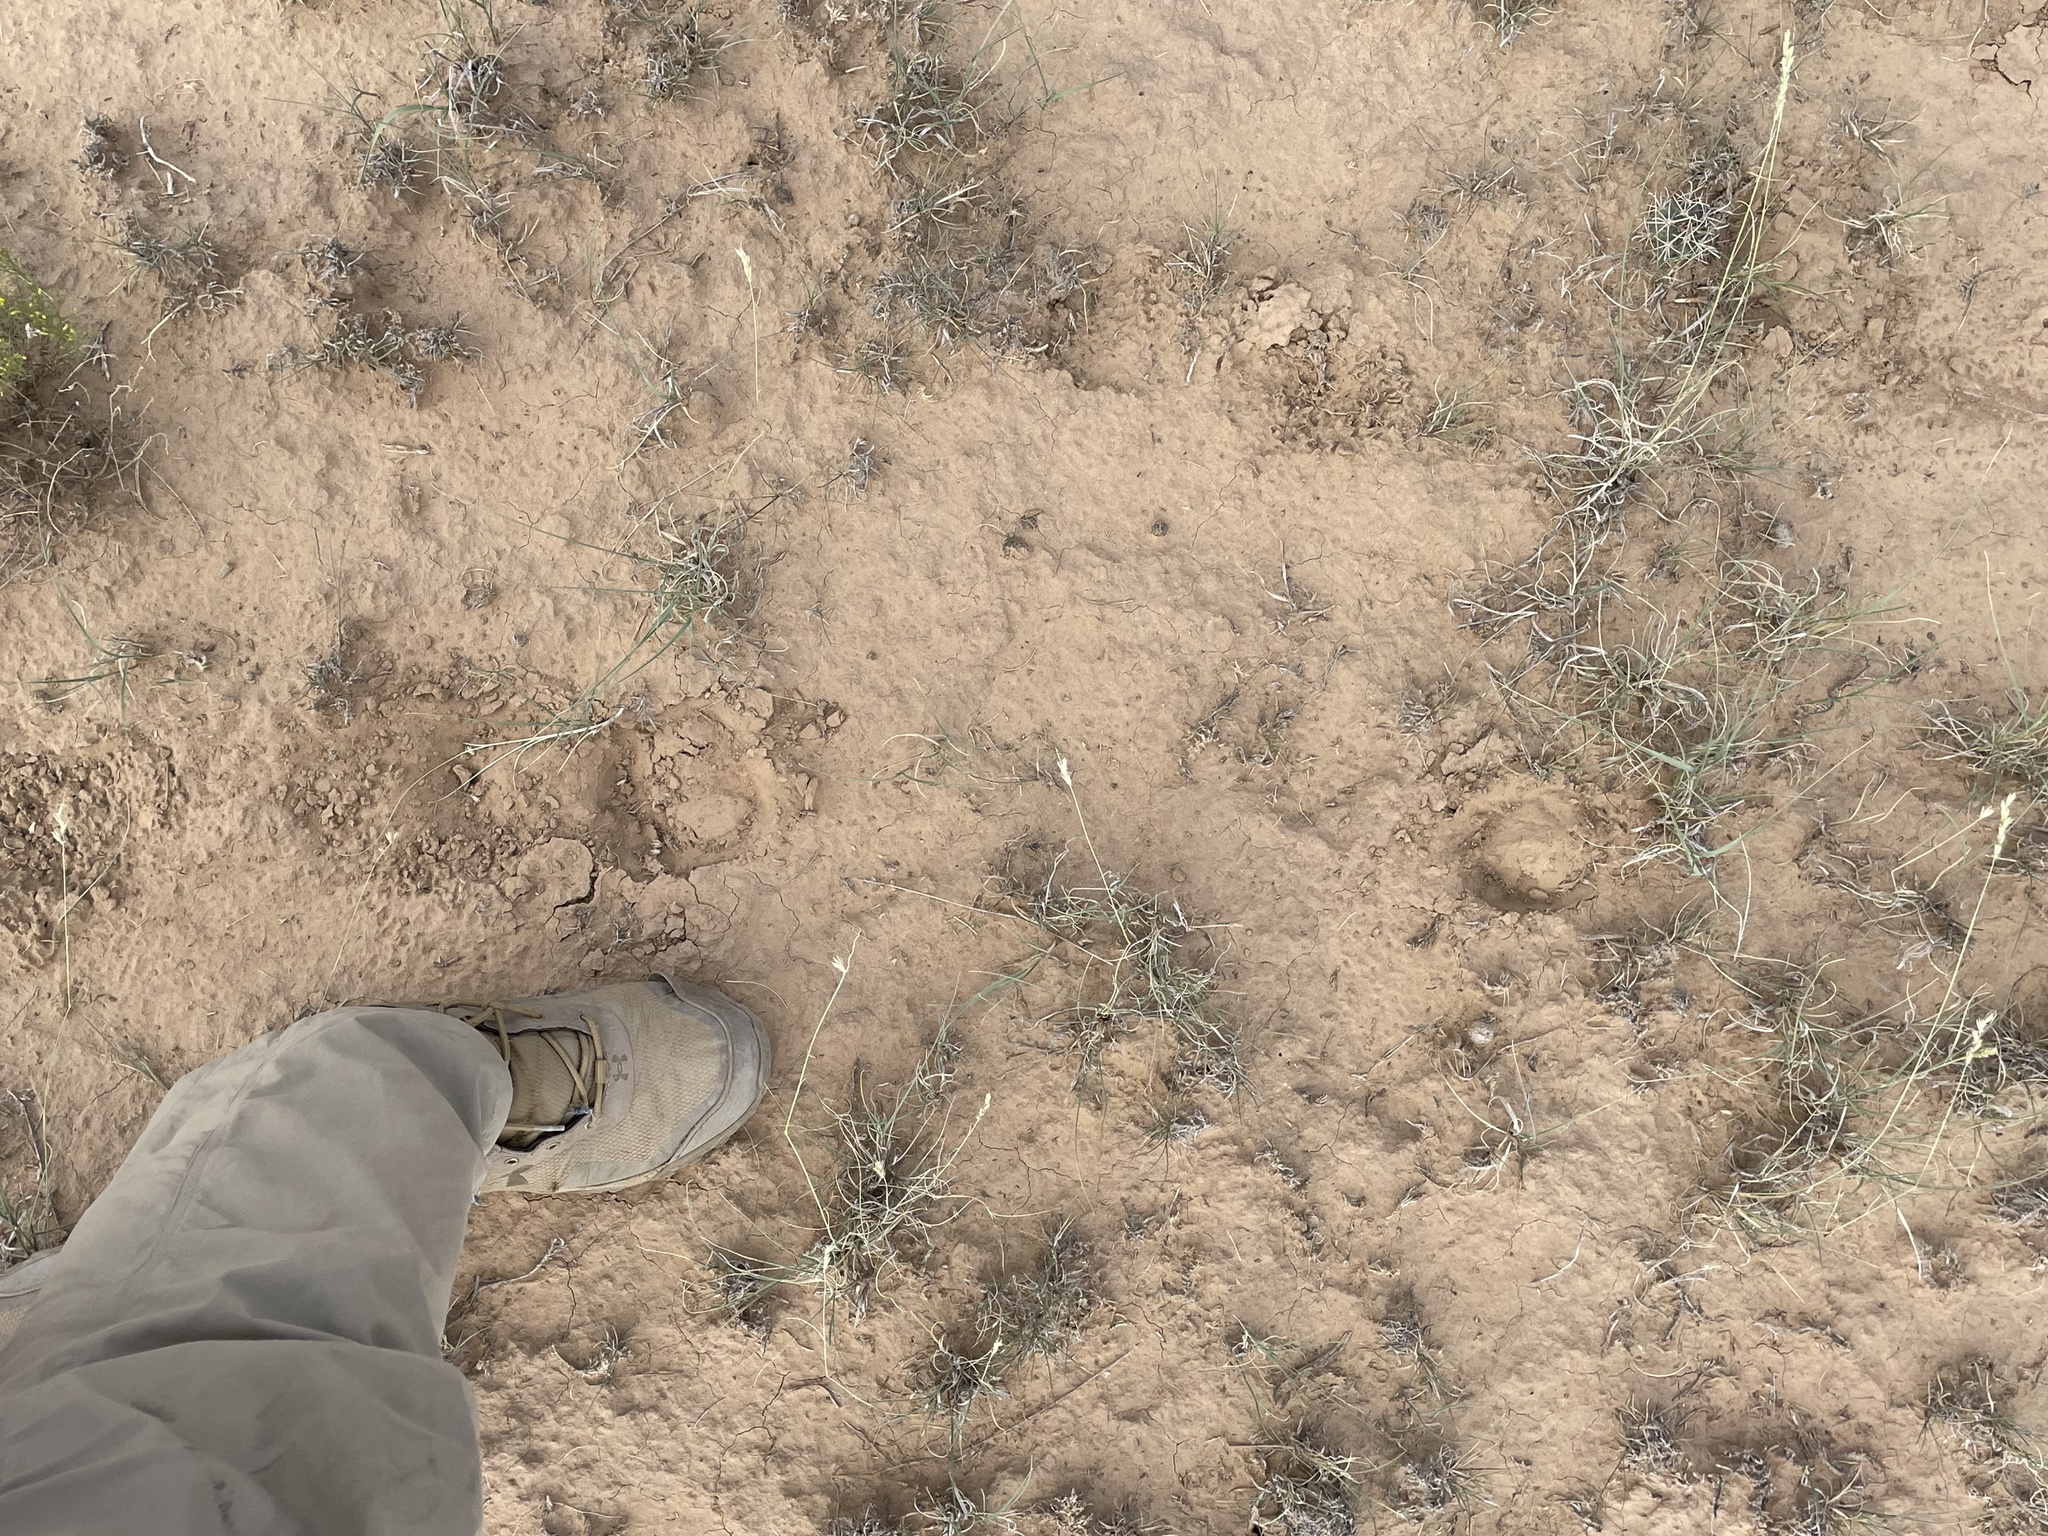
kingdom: Animalia
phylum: Chordata
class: Mammalia
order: Artiodactyla
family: Cervidae
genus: Cervus
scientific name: Cervus elaphus
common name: Red deer
